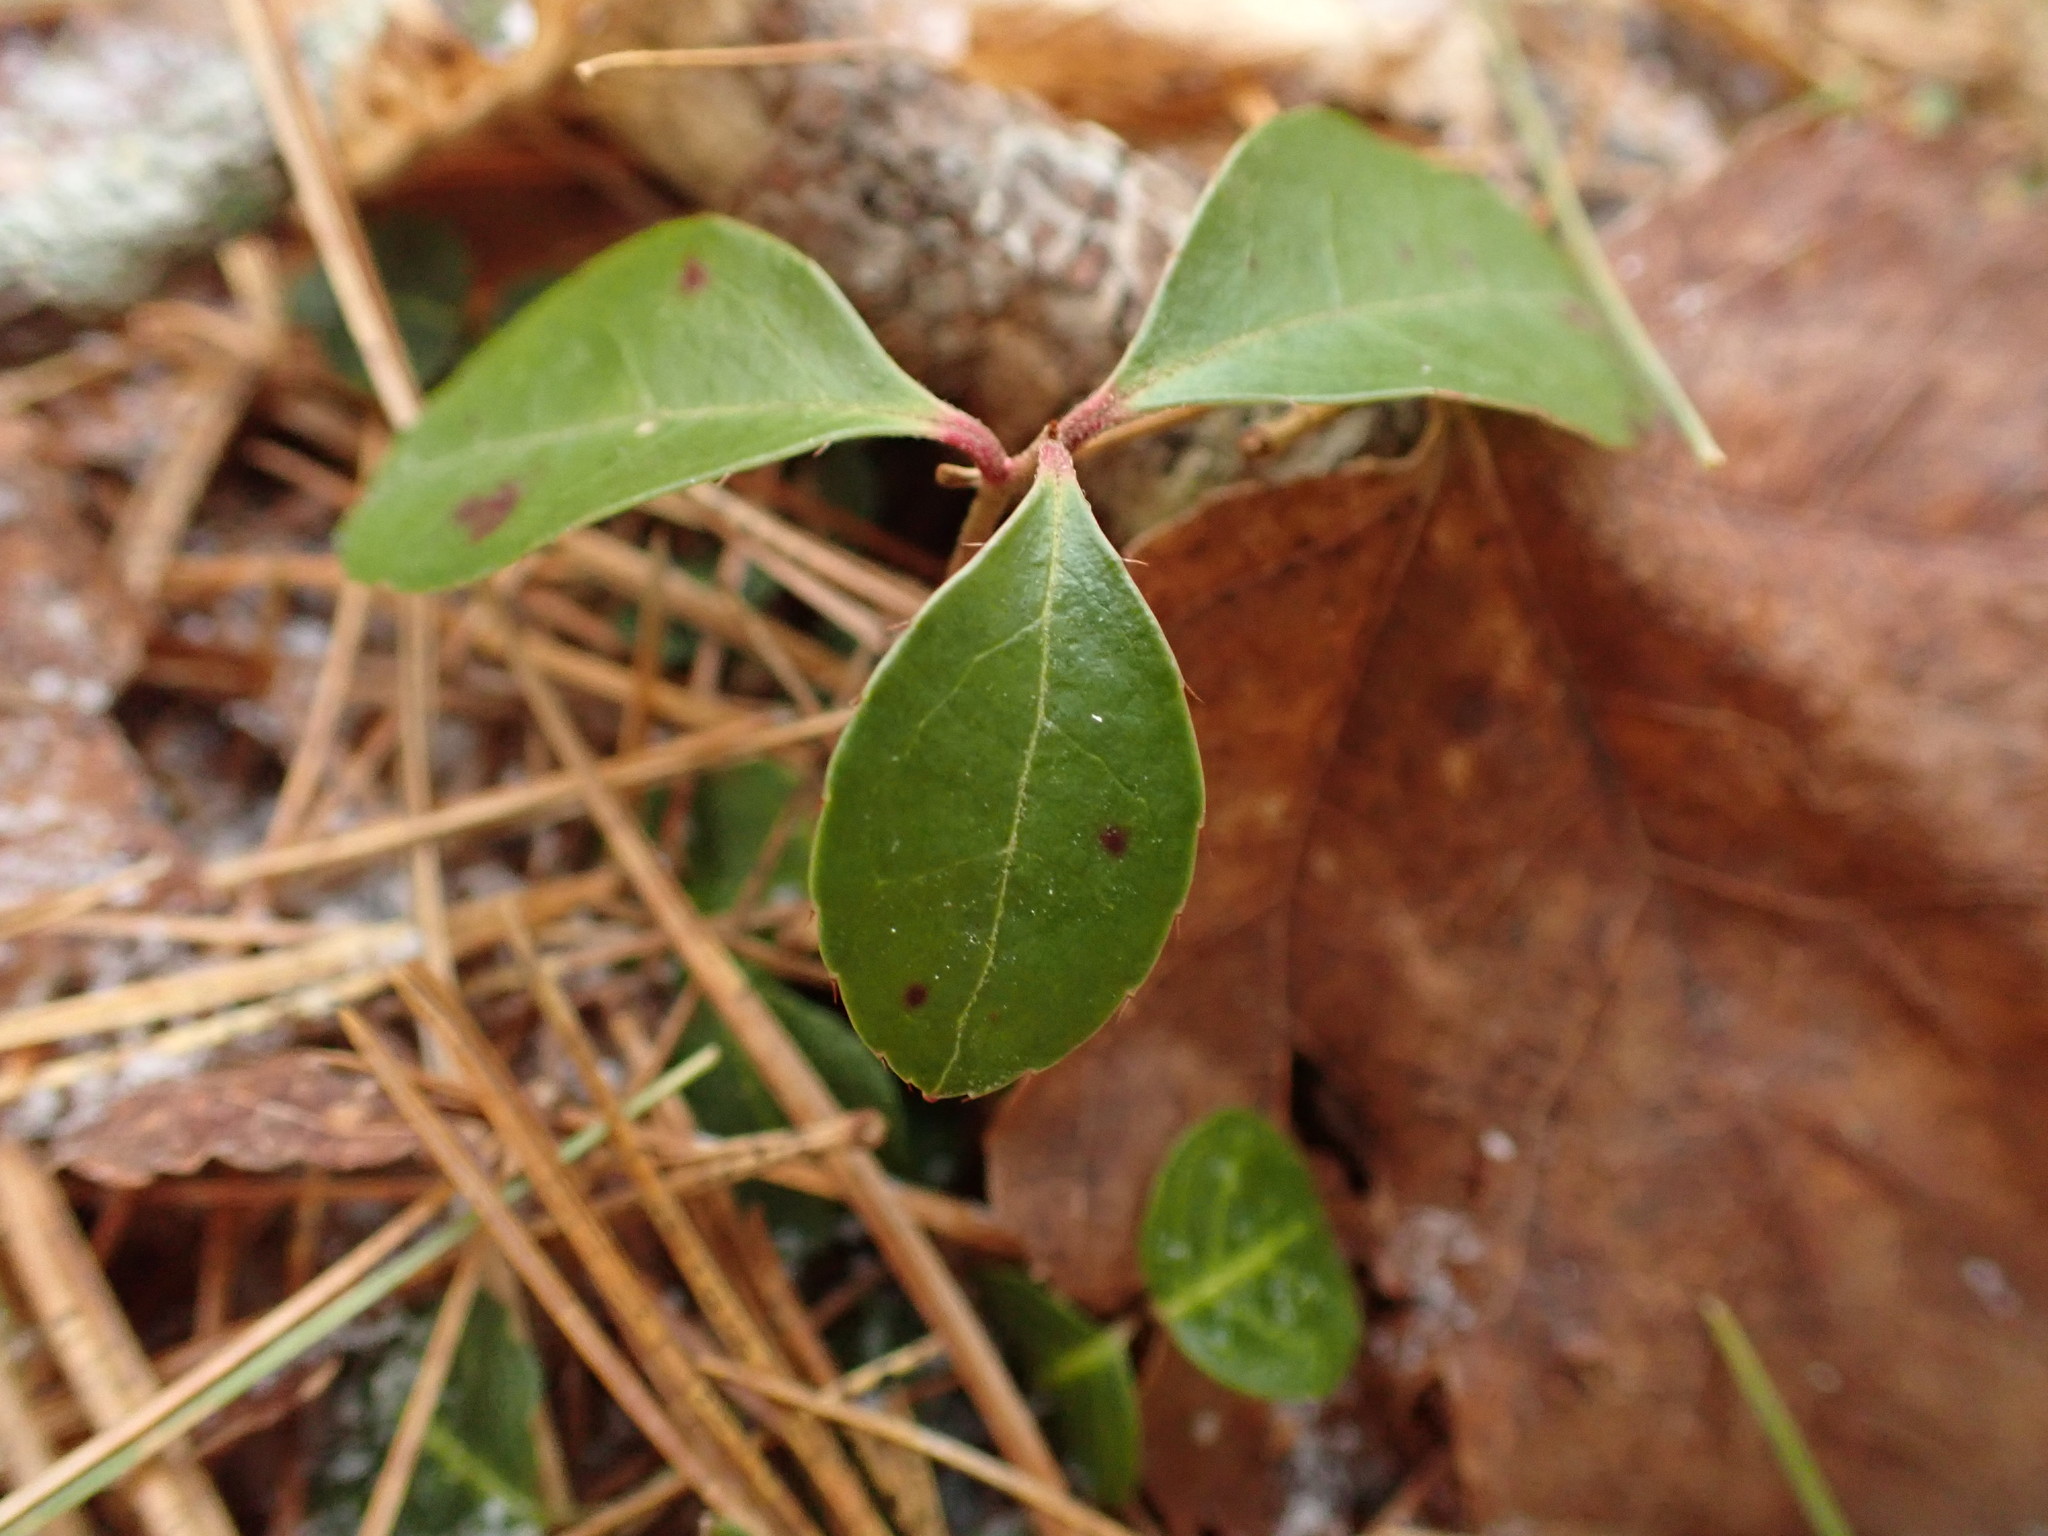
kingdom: Plantae
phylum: Tracheophyta
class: Magnoliopsida
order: Ericales
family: Ericaceae
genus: Gaultheria
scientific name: Gaultheria procumbens
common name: Checkerberry
